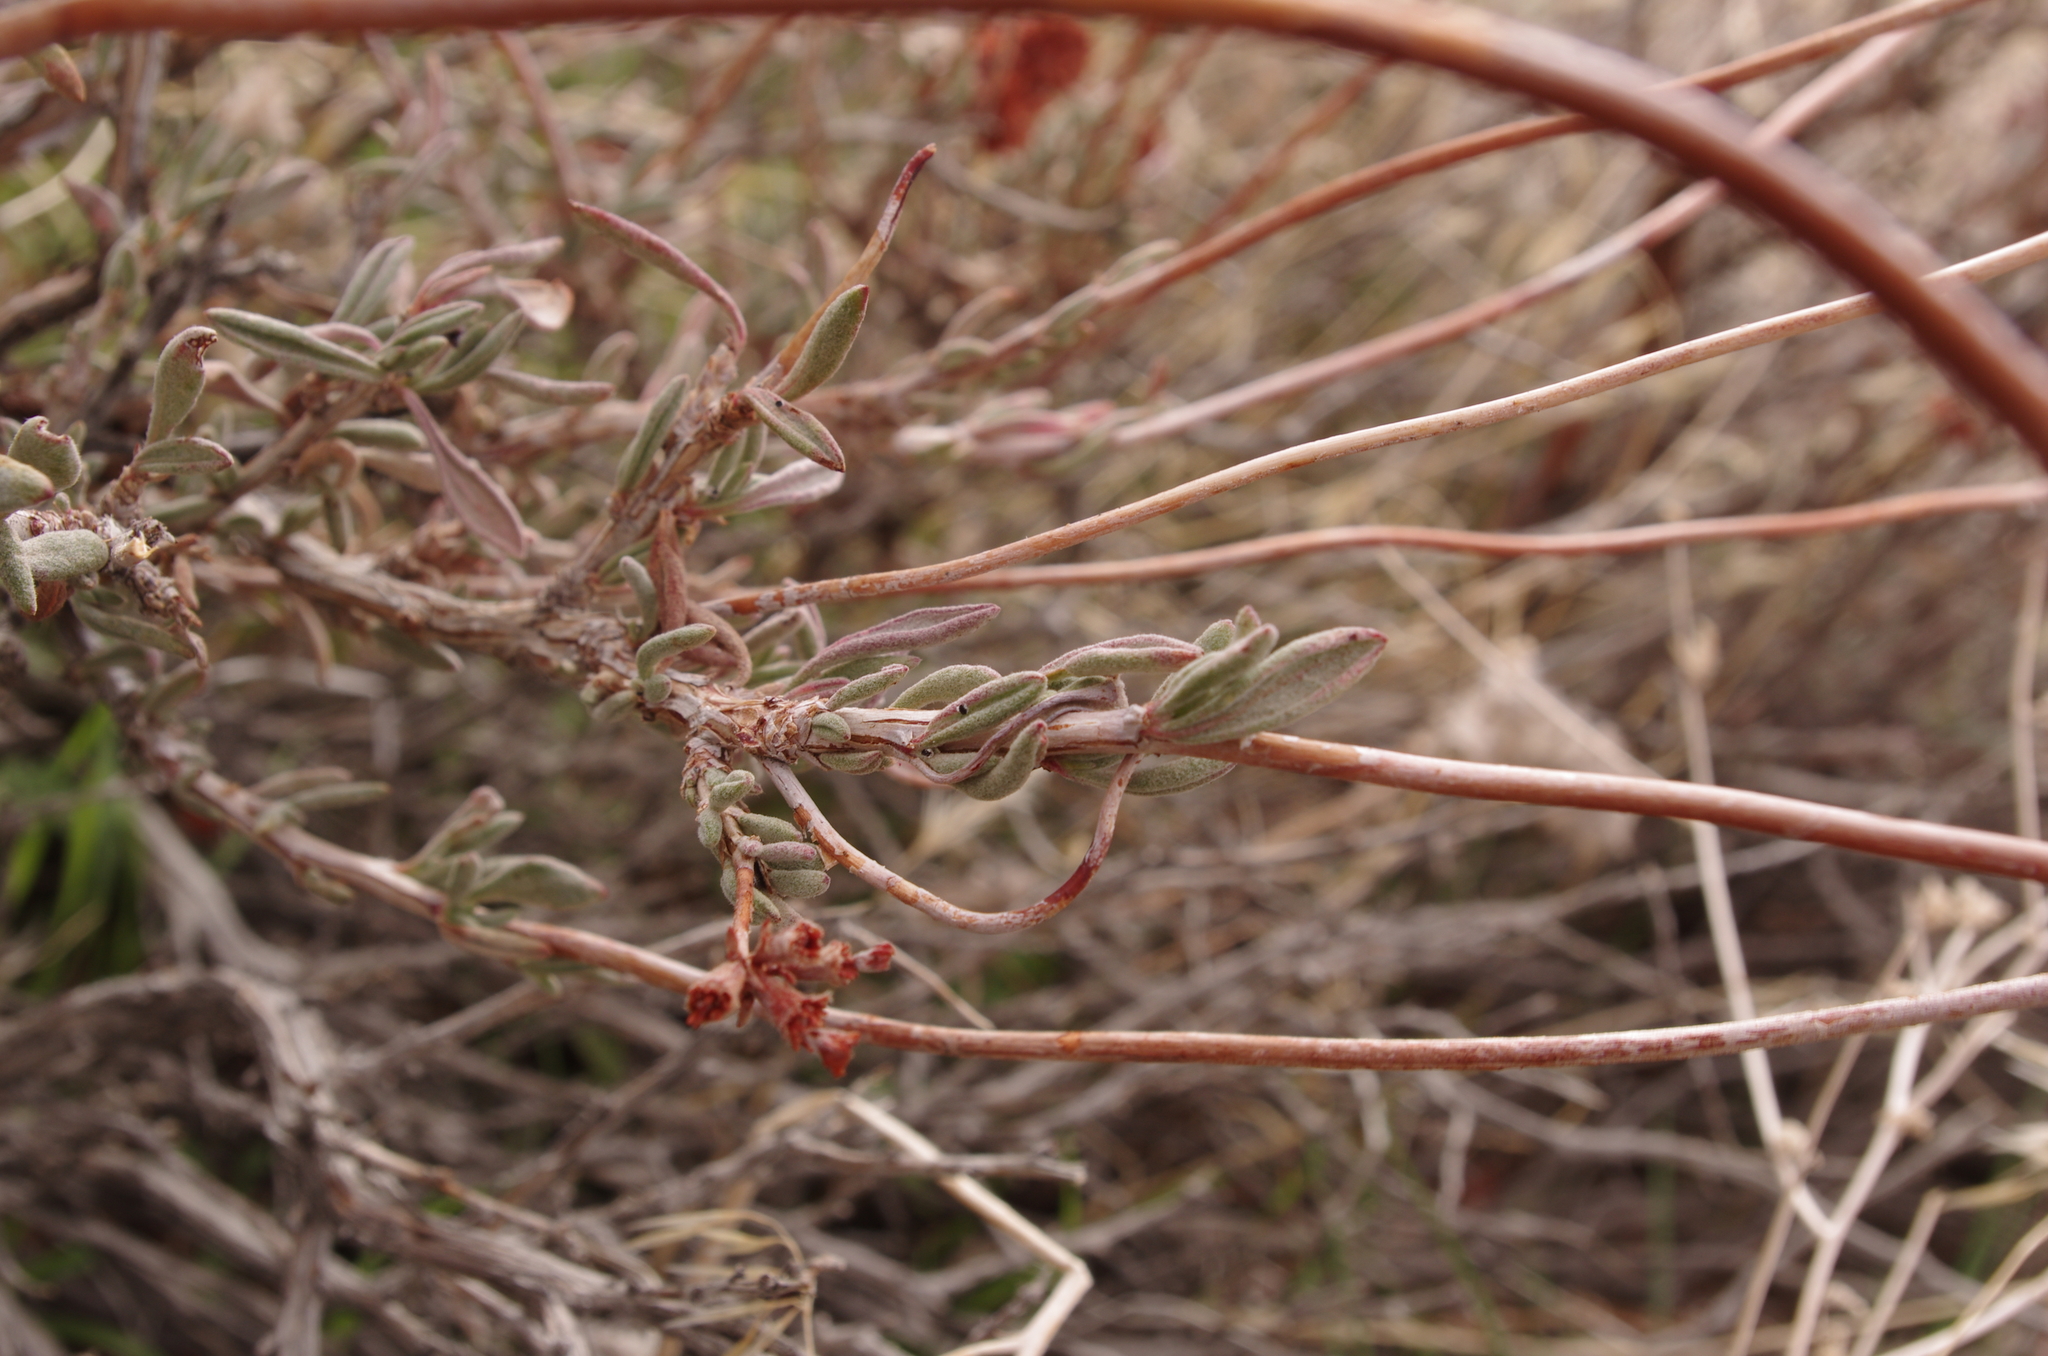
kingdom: Plantae
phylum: Tracheophyta
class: Magnoliopsida
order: Caryophyllales
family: Polygonaceae
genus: Eriogonum
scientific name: Eriogonum fasciculatum
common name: California wild buckwheat
